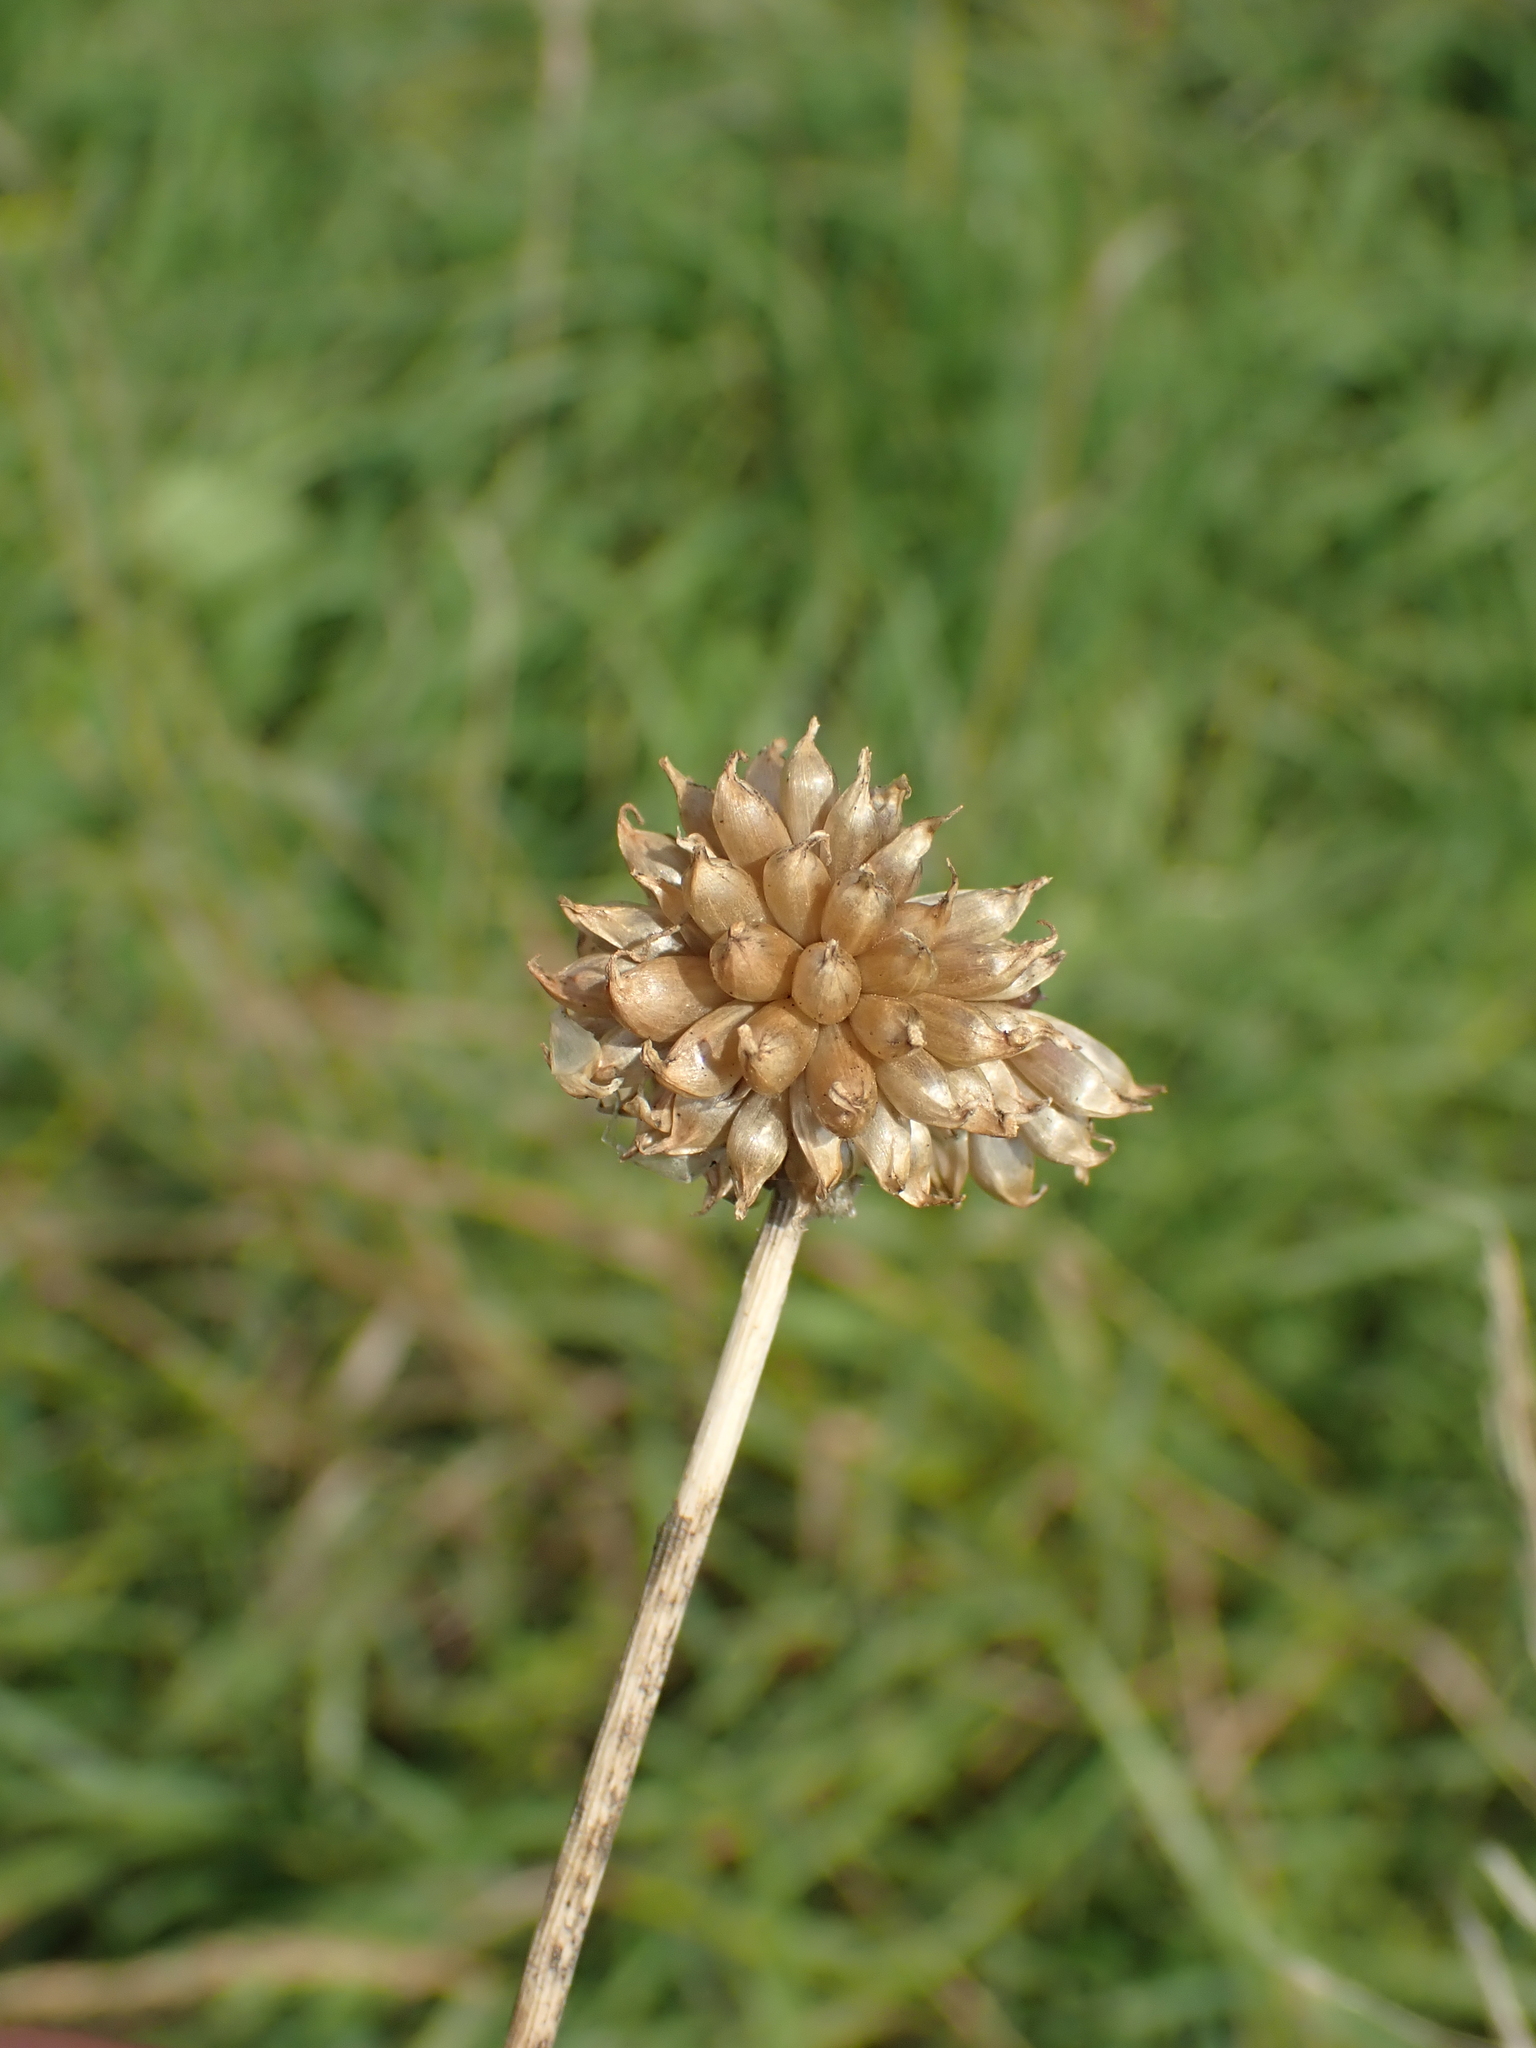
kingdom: Plantae
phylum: Tracheophyta
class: Liliopsida
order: Asparagales
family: Amaryllidaceae
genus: Allium
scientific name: Allium vineale
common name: Crow garlic
